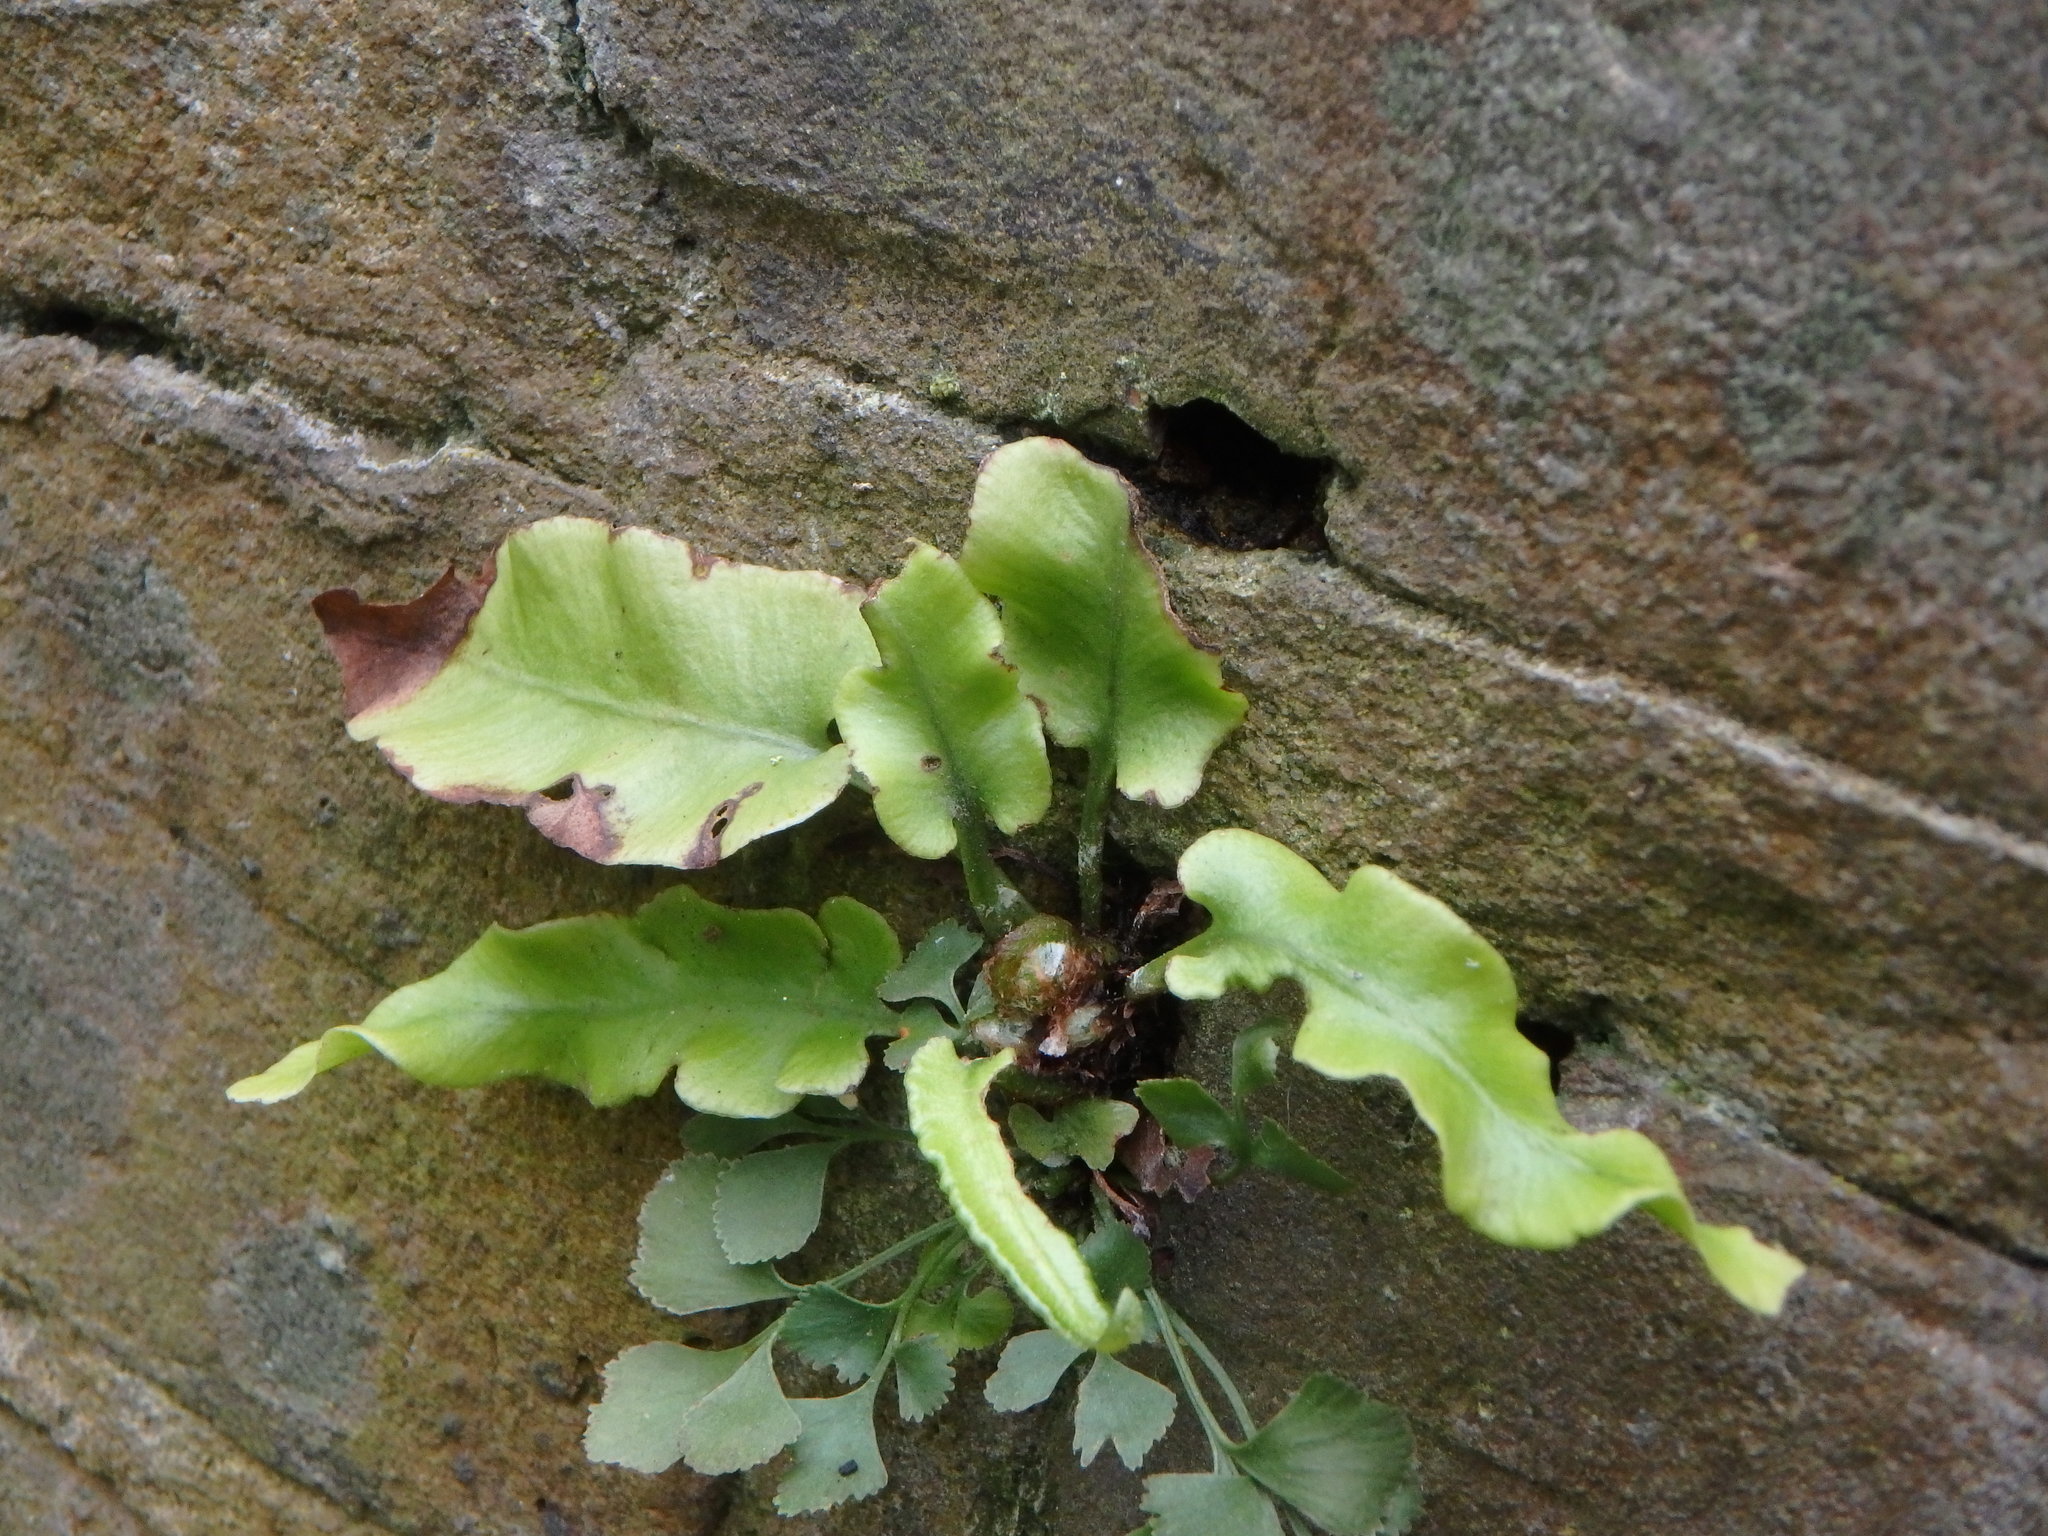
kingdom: Plantae
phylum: Tracheophyta
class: Polypodiopsida
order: Polypodiales
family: Aspleniaceae
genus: Asplenium
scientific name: Asplenium scolopendrium
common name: Hart's-tongue fern
